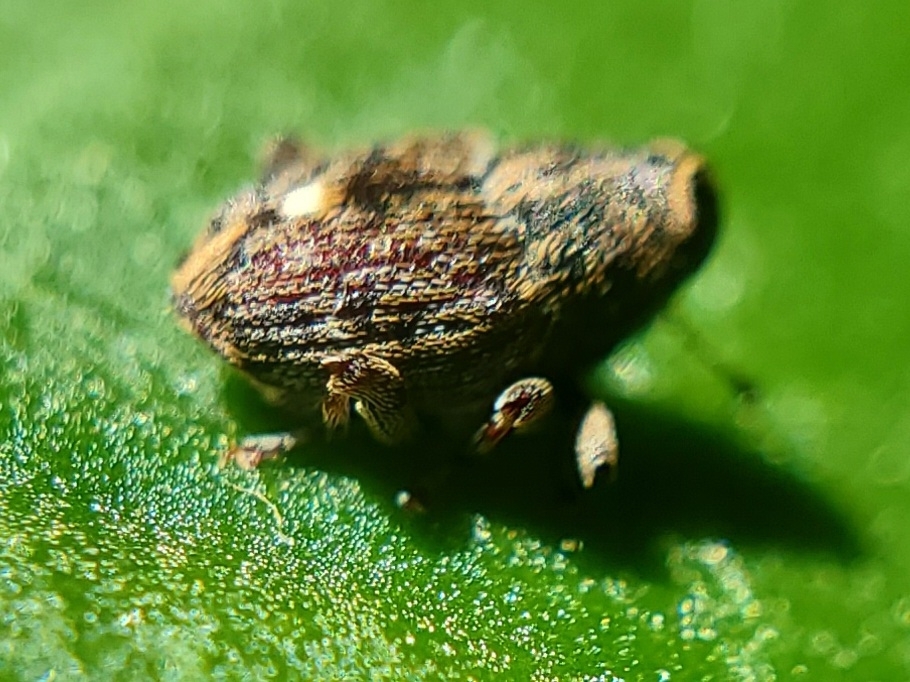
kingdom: Animalia
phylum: Arthropoda
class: Insecta
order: Coleoptera
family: Curculionidae
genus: Lechriops
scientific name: Lechriops oculatus
